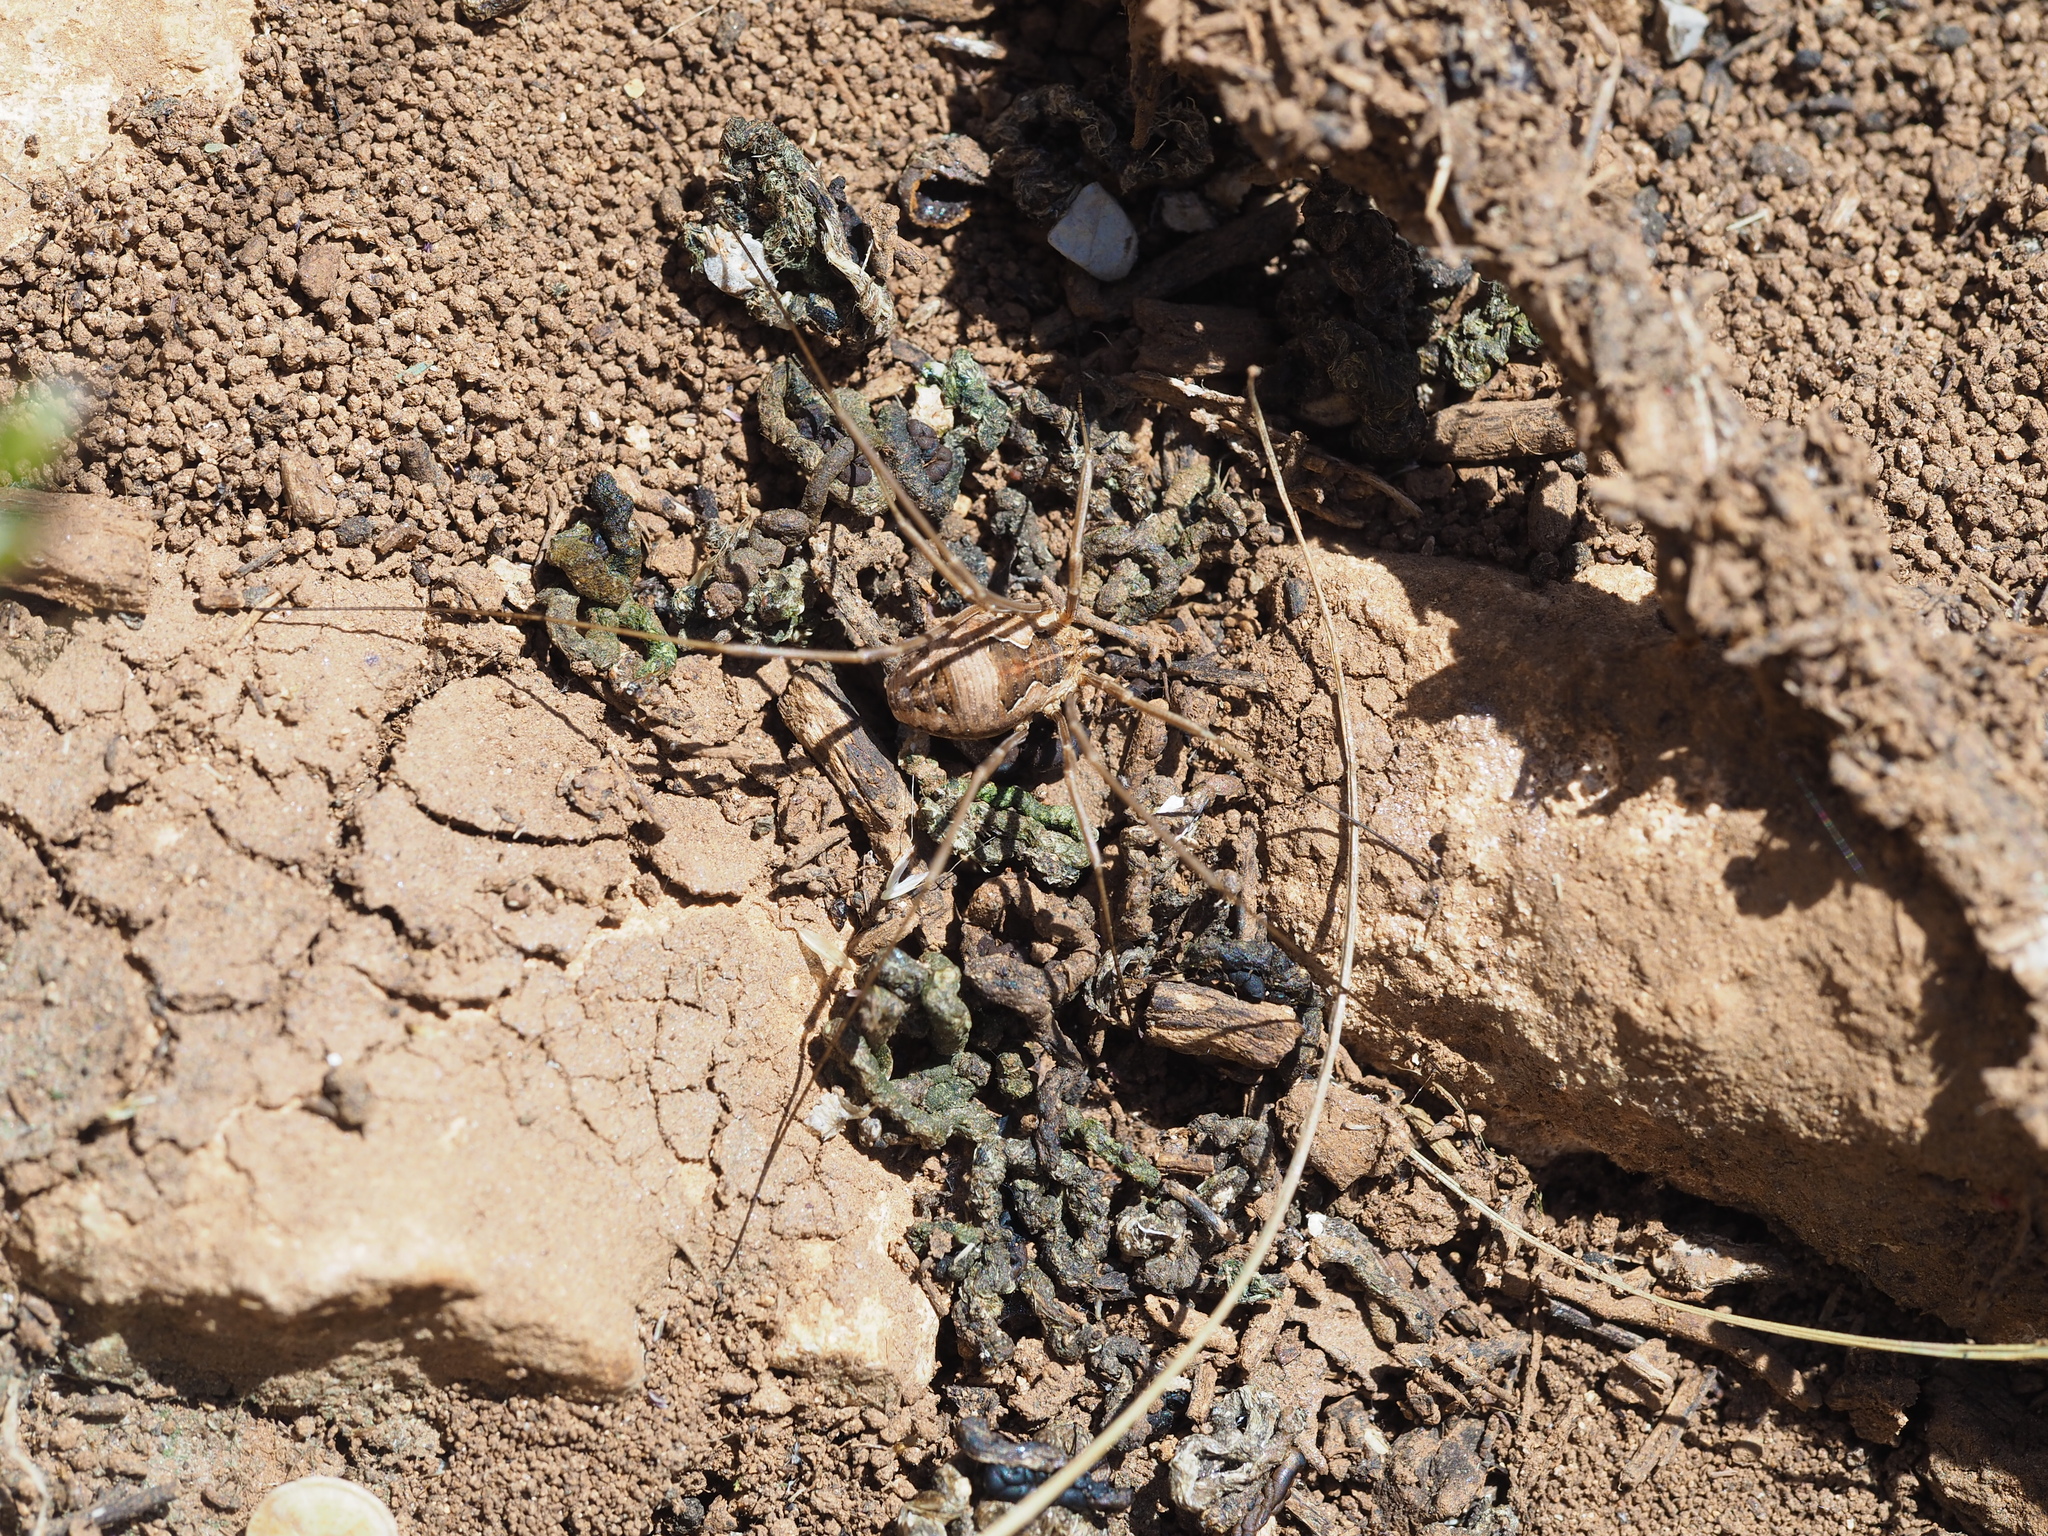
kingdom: Animalia
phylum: Arthropoda
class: Arachnida
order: Opiliones
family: Phalangiidae
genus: Metaphalangium
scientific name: Metaphalangium abstrusum
